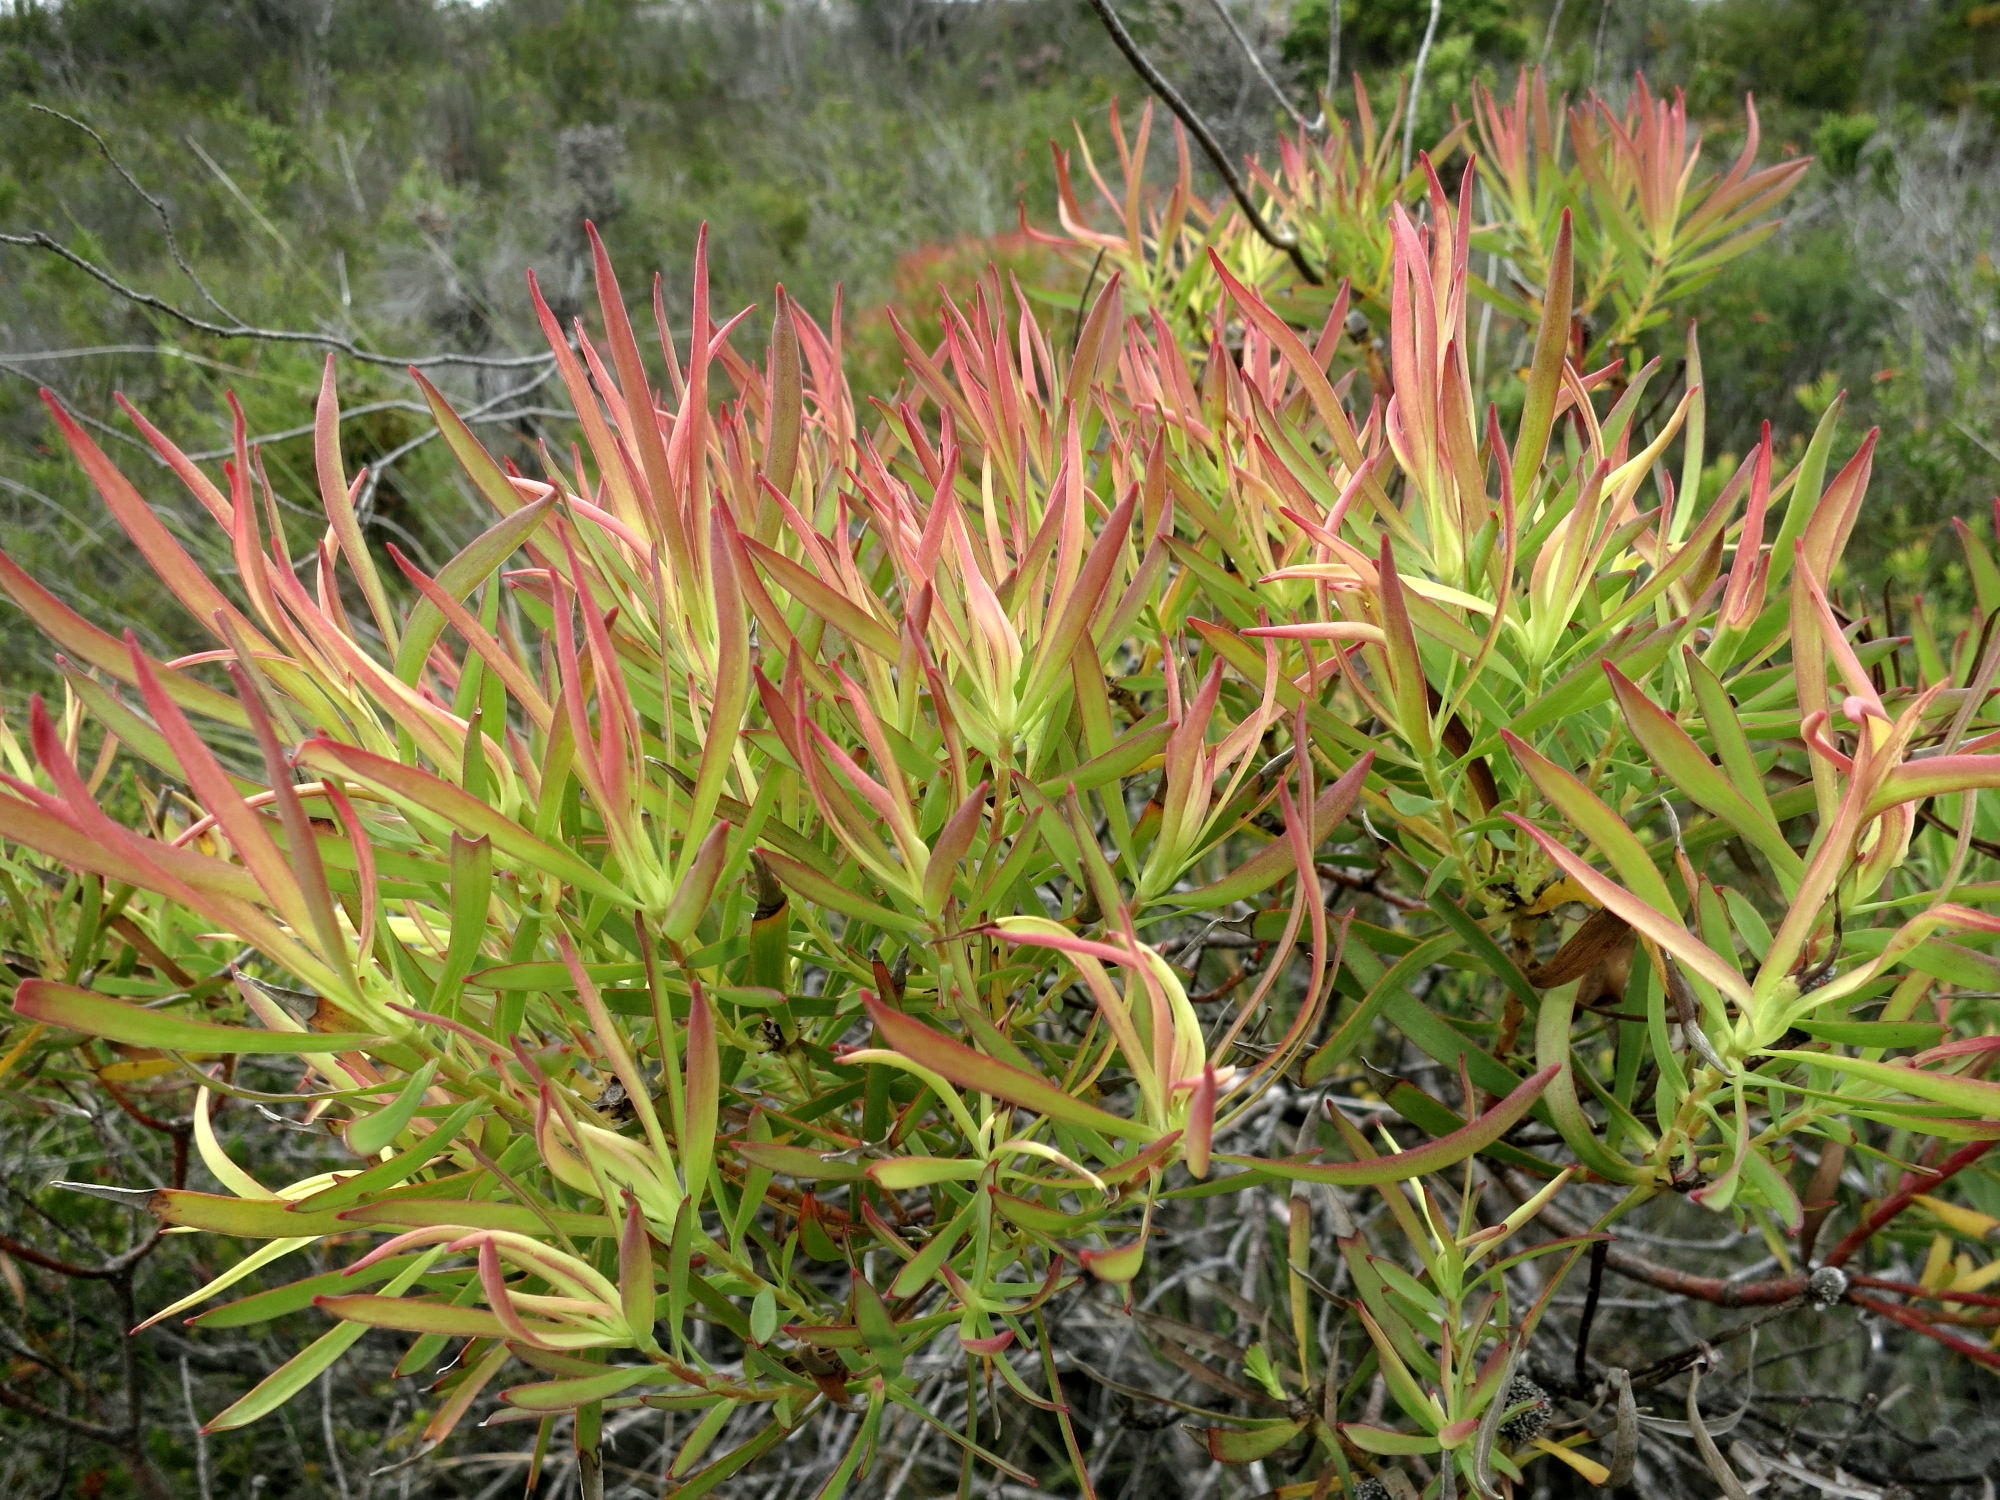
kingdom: Plantae
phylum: Tracheophyta
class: Magnoliopsida
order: Proteales
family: Proteaceae
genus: Leucadendron
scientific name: Leucadendron salignum
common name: Common sunshine conebush
